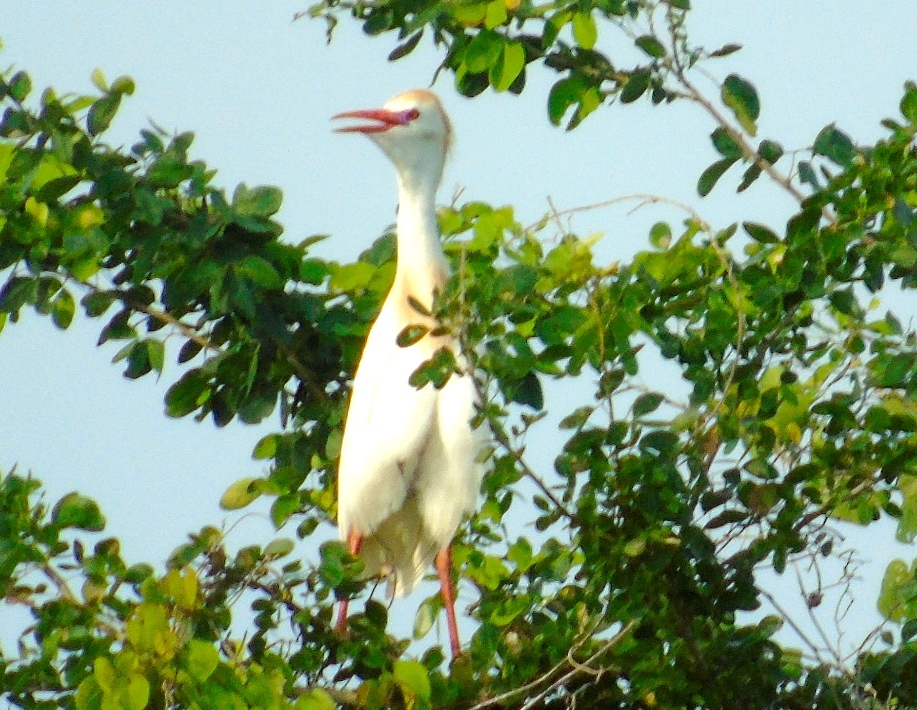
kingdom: Animalia
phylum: Chordata
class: Aves
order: Pelecaniformes
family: Ardeidae
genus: Bubulcus
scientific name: Bubulcus ibis
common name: Cattle egret
